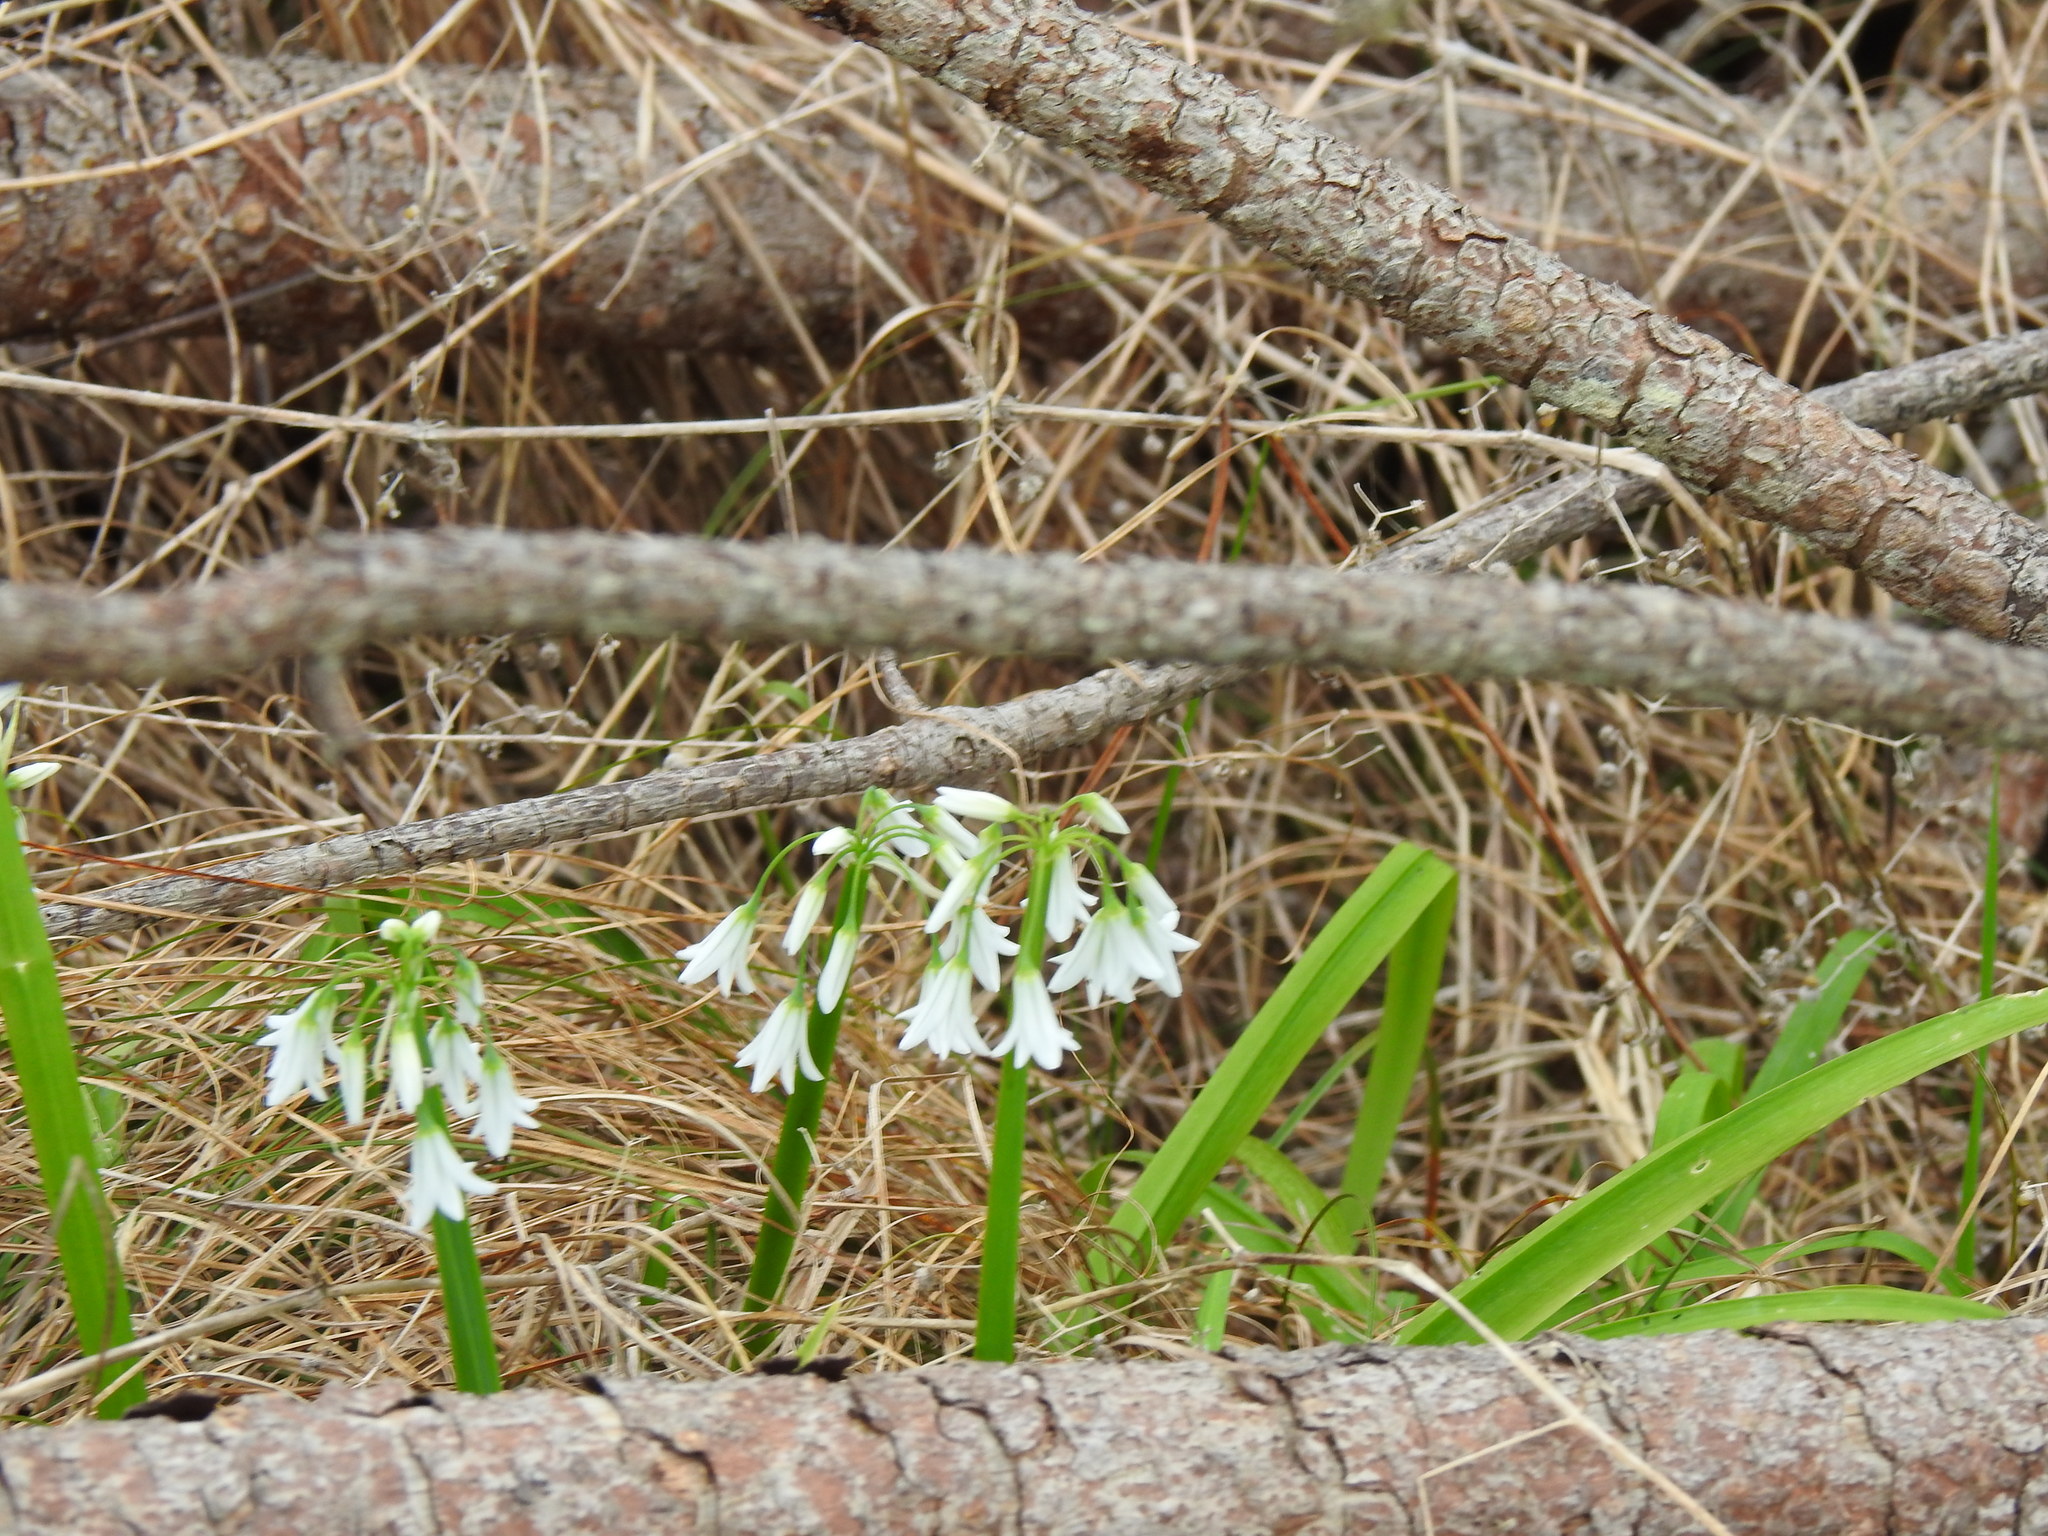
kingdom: Plantae
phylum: Tracheophyta
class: Liliopsida
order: Asparagales
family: Amaryllidaceae
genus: Allium
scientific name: Allium triquetrum
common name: Three-cornered garlic
